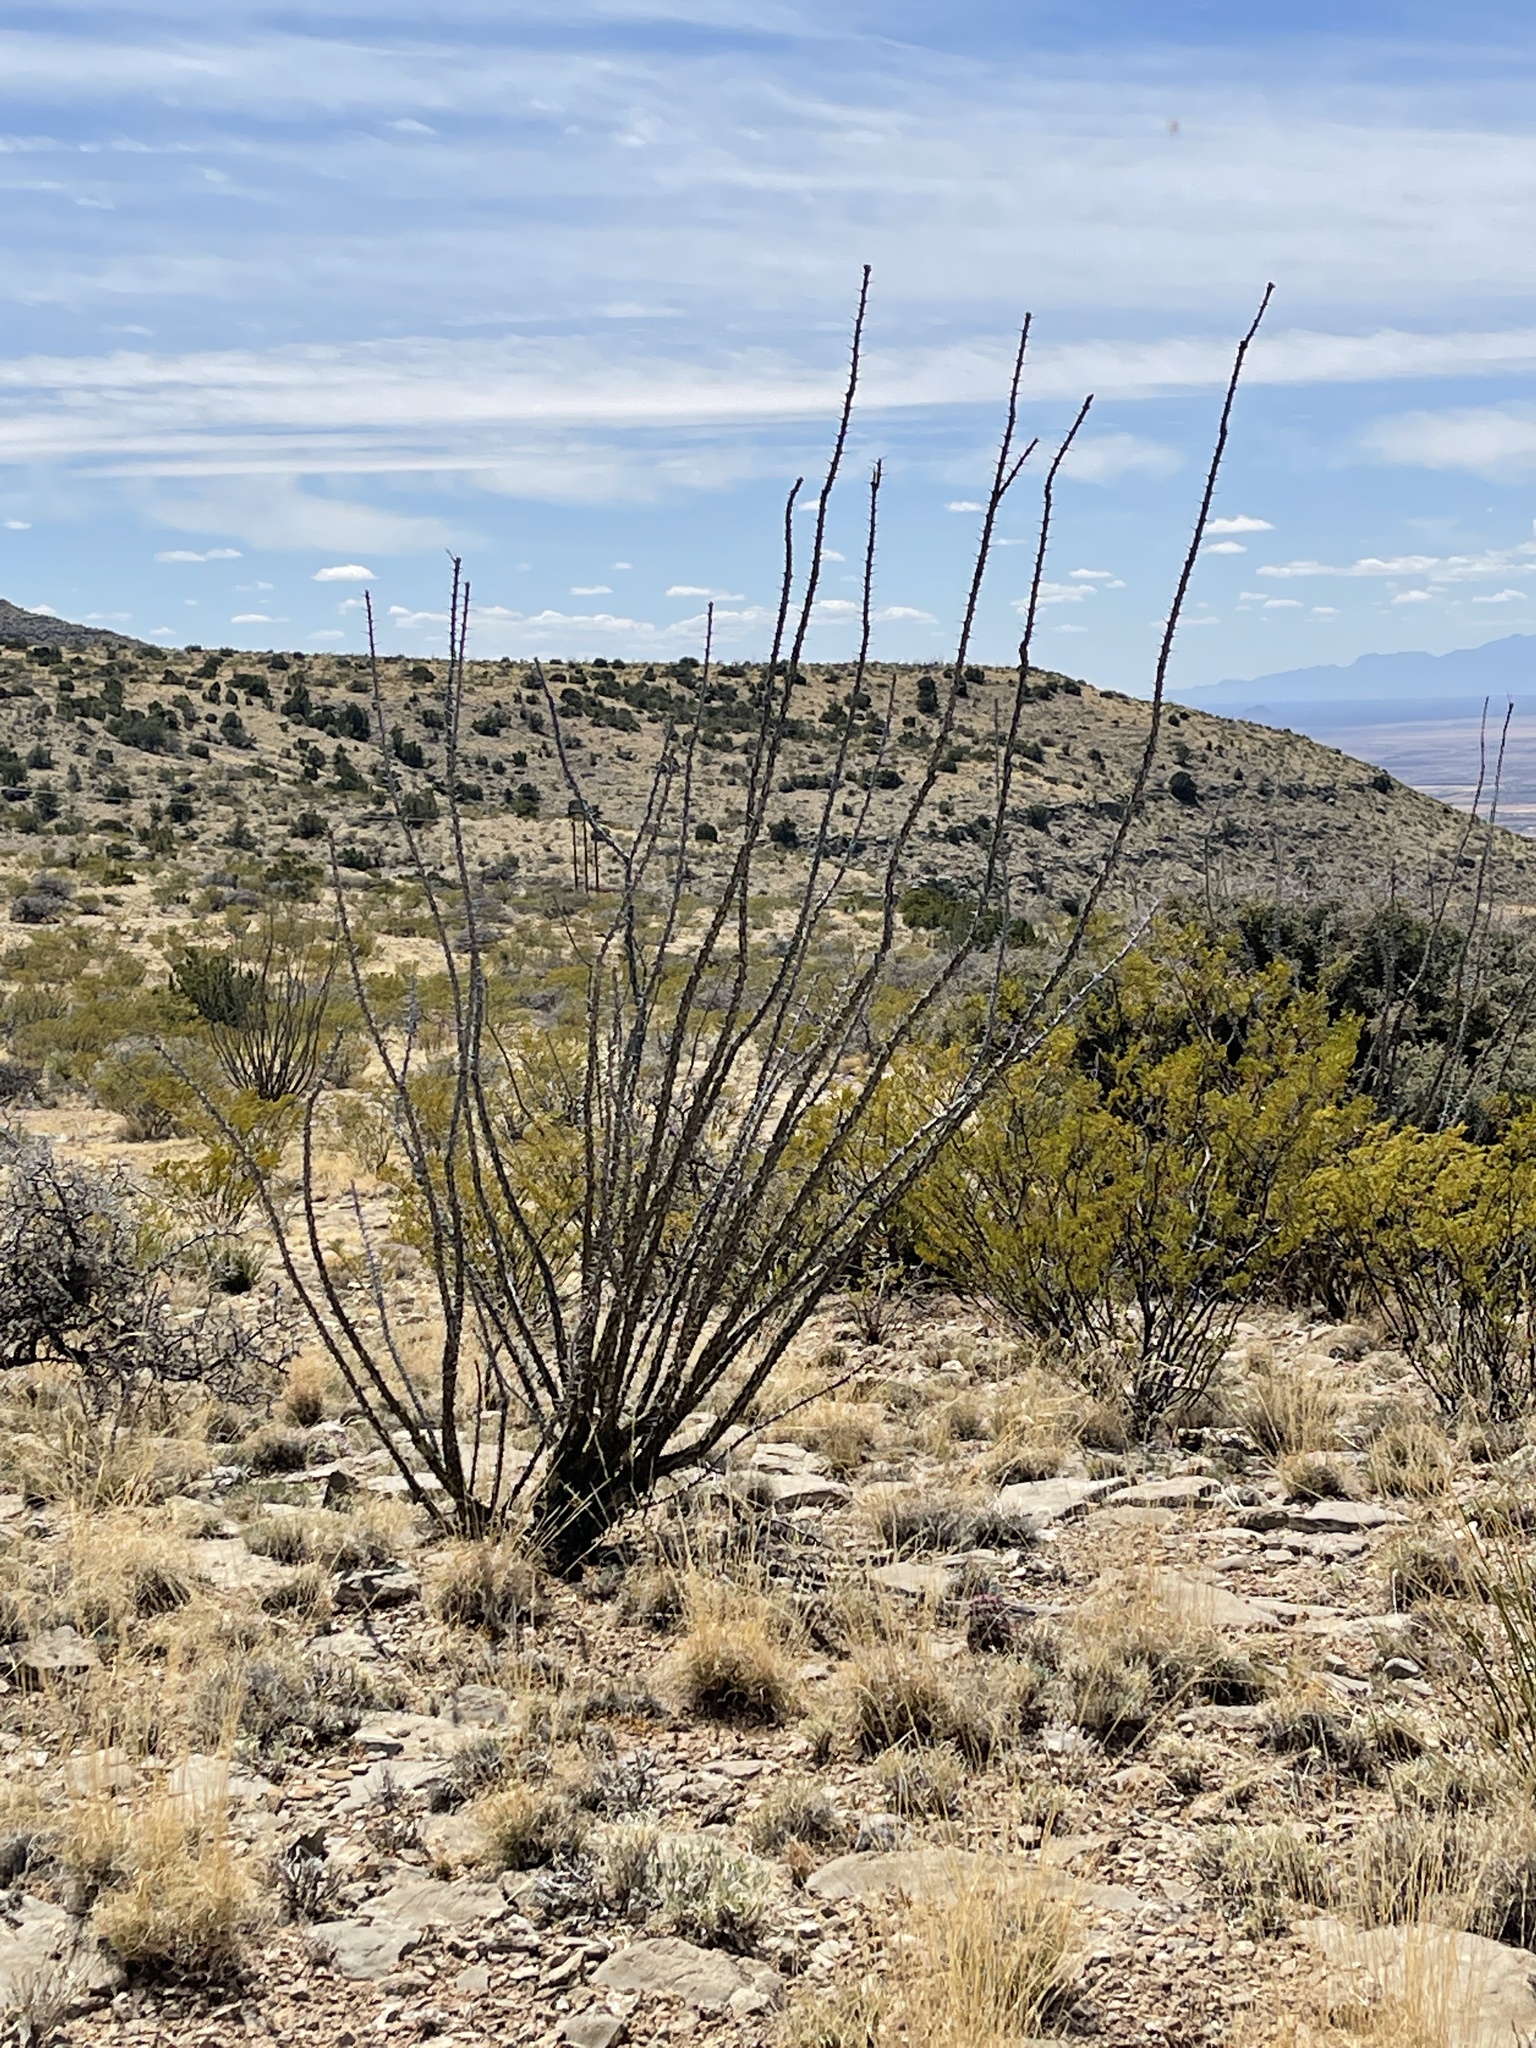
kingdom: Plantae
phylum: Tracheophyta
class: Magnoliopsida
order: Ericales
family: Fouquieriaceae
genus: Fouquieria
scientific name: Fouquieria splendens
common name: Vine-cactus
